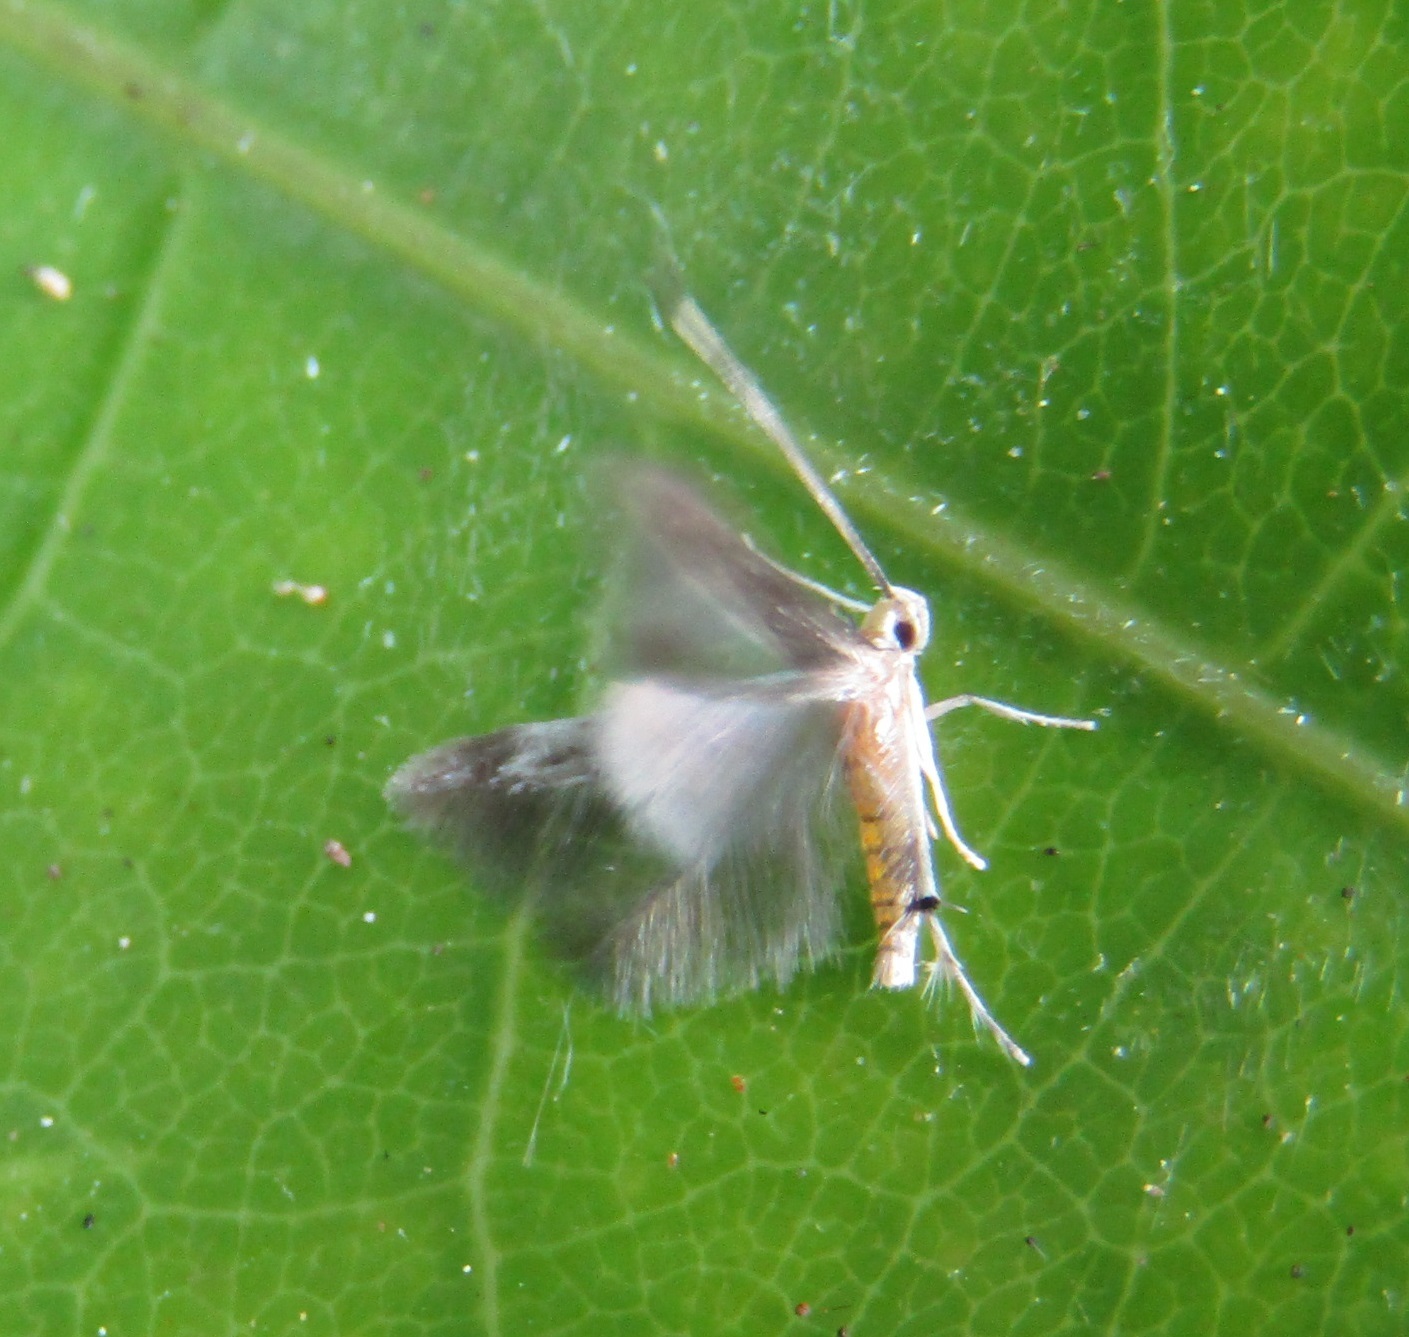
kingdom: Animalia
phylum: Arthropoda
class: Insecta
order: Lepidoptera
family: Stathmopodidae
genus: Thylacosceles
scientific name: Thylacosceles radians
